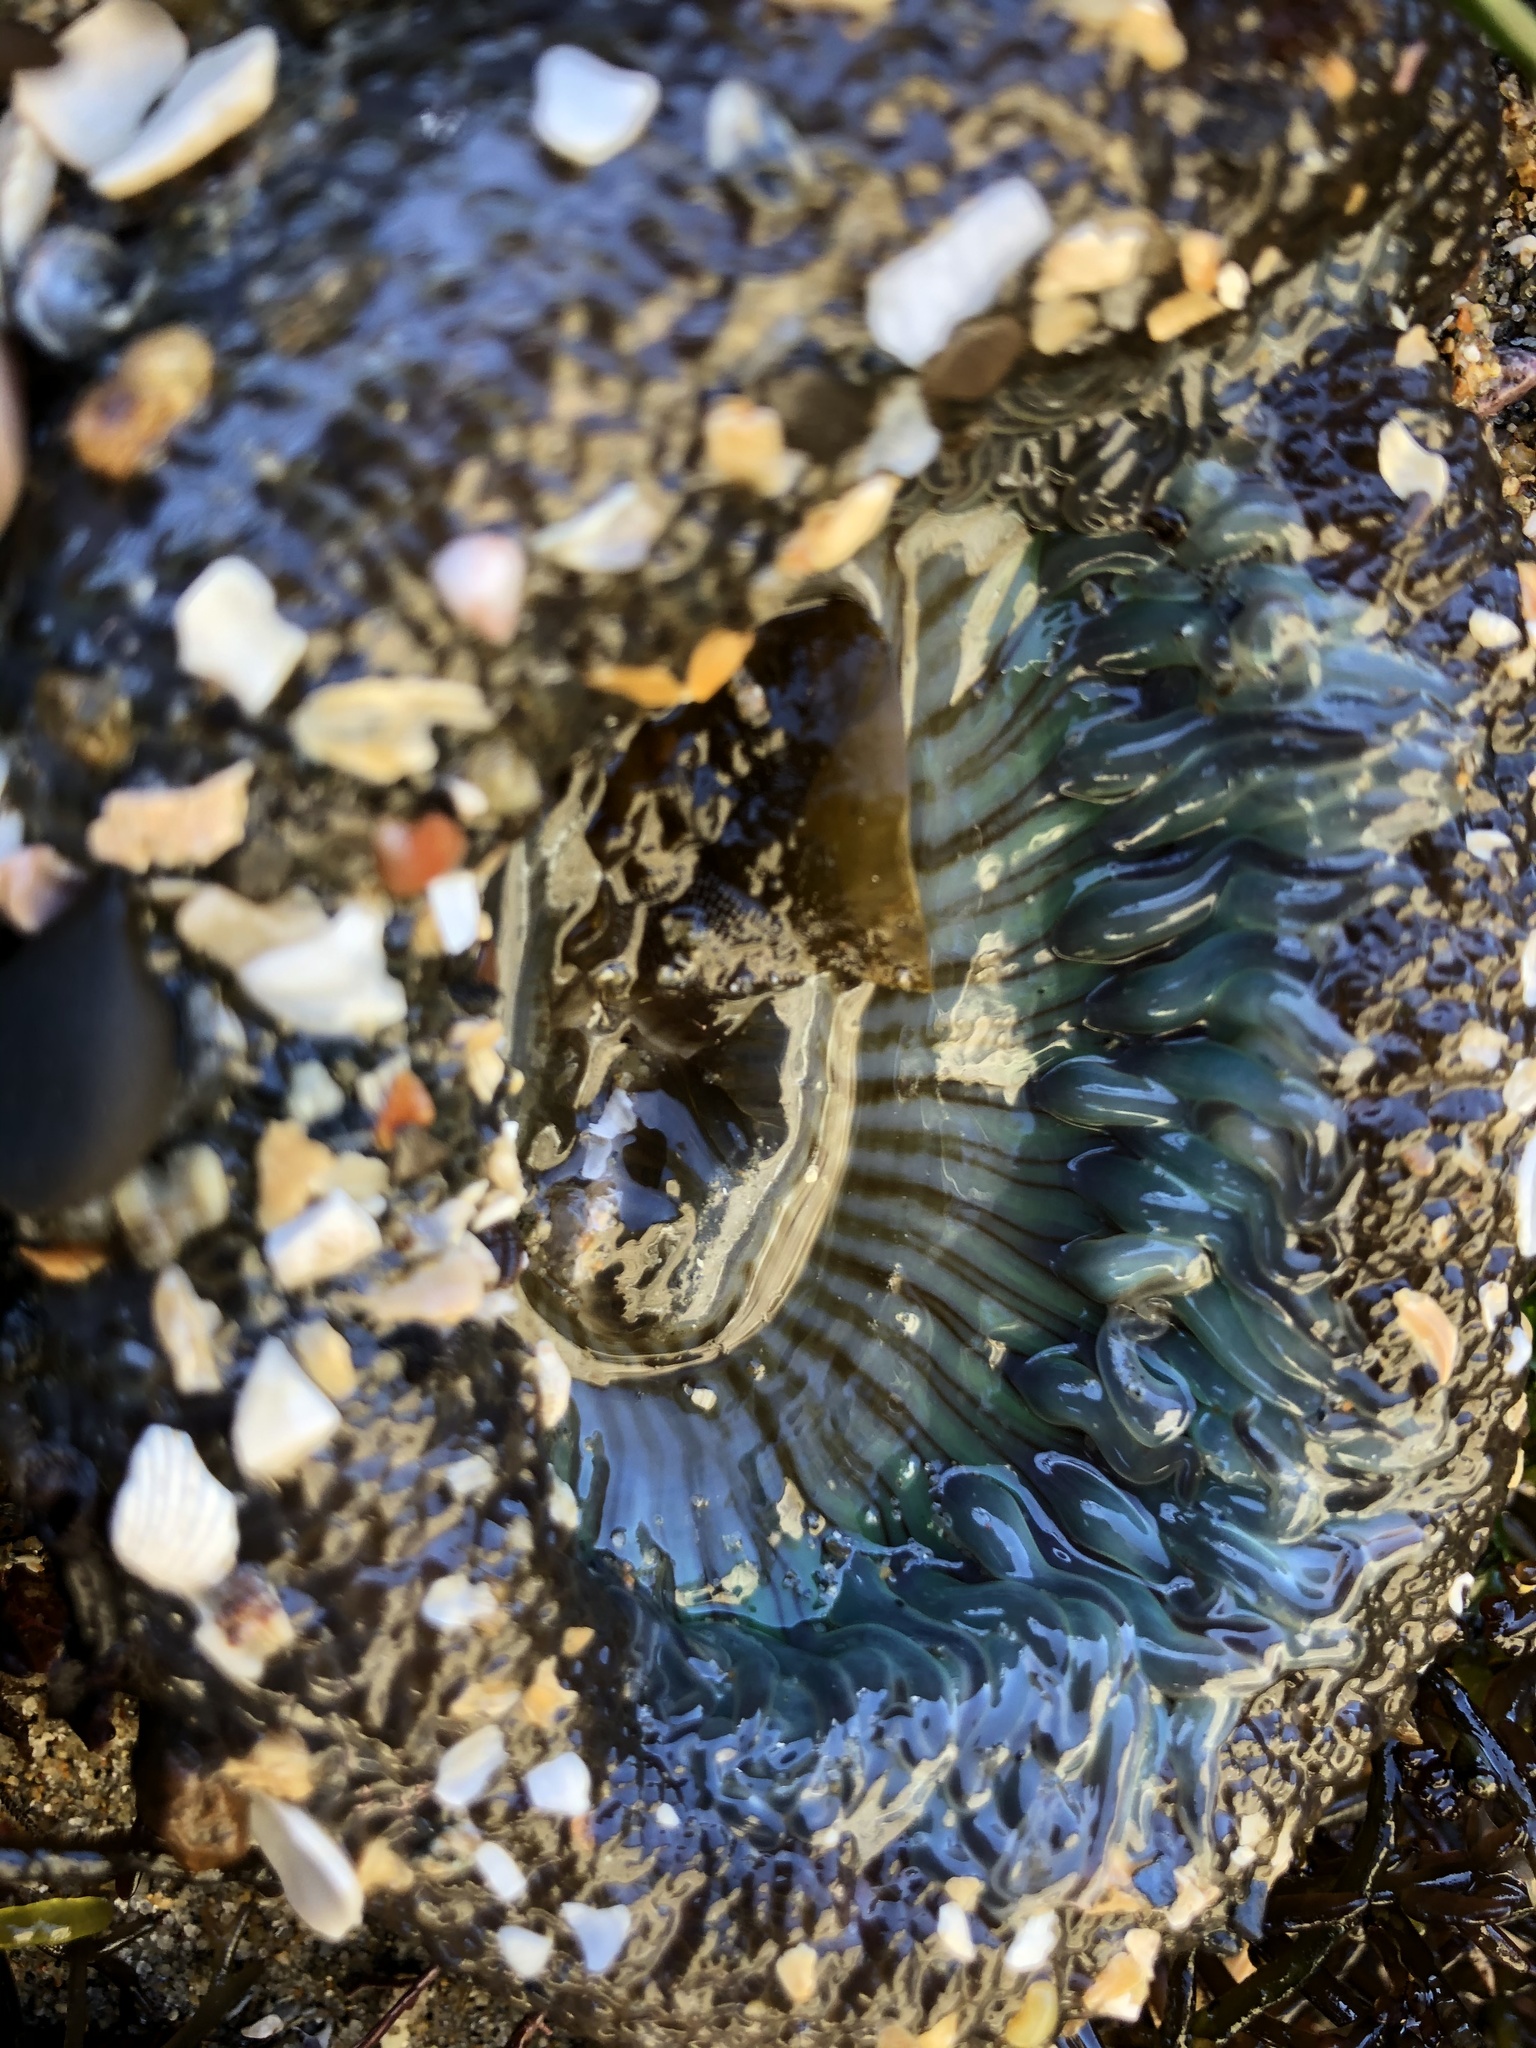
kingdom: Animalia
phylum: Cnidaria
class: Anthozoa
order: Actiniaria
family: Actiniidae
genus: Anthopleura
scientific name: Anthopleura sola
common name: Sun anemone
